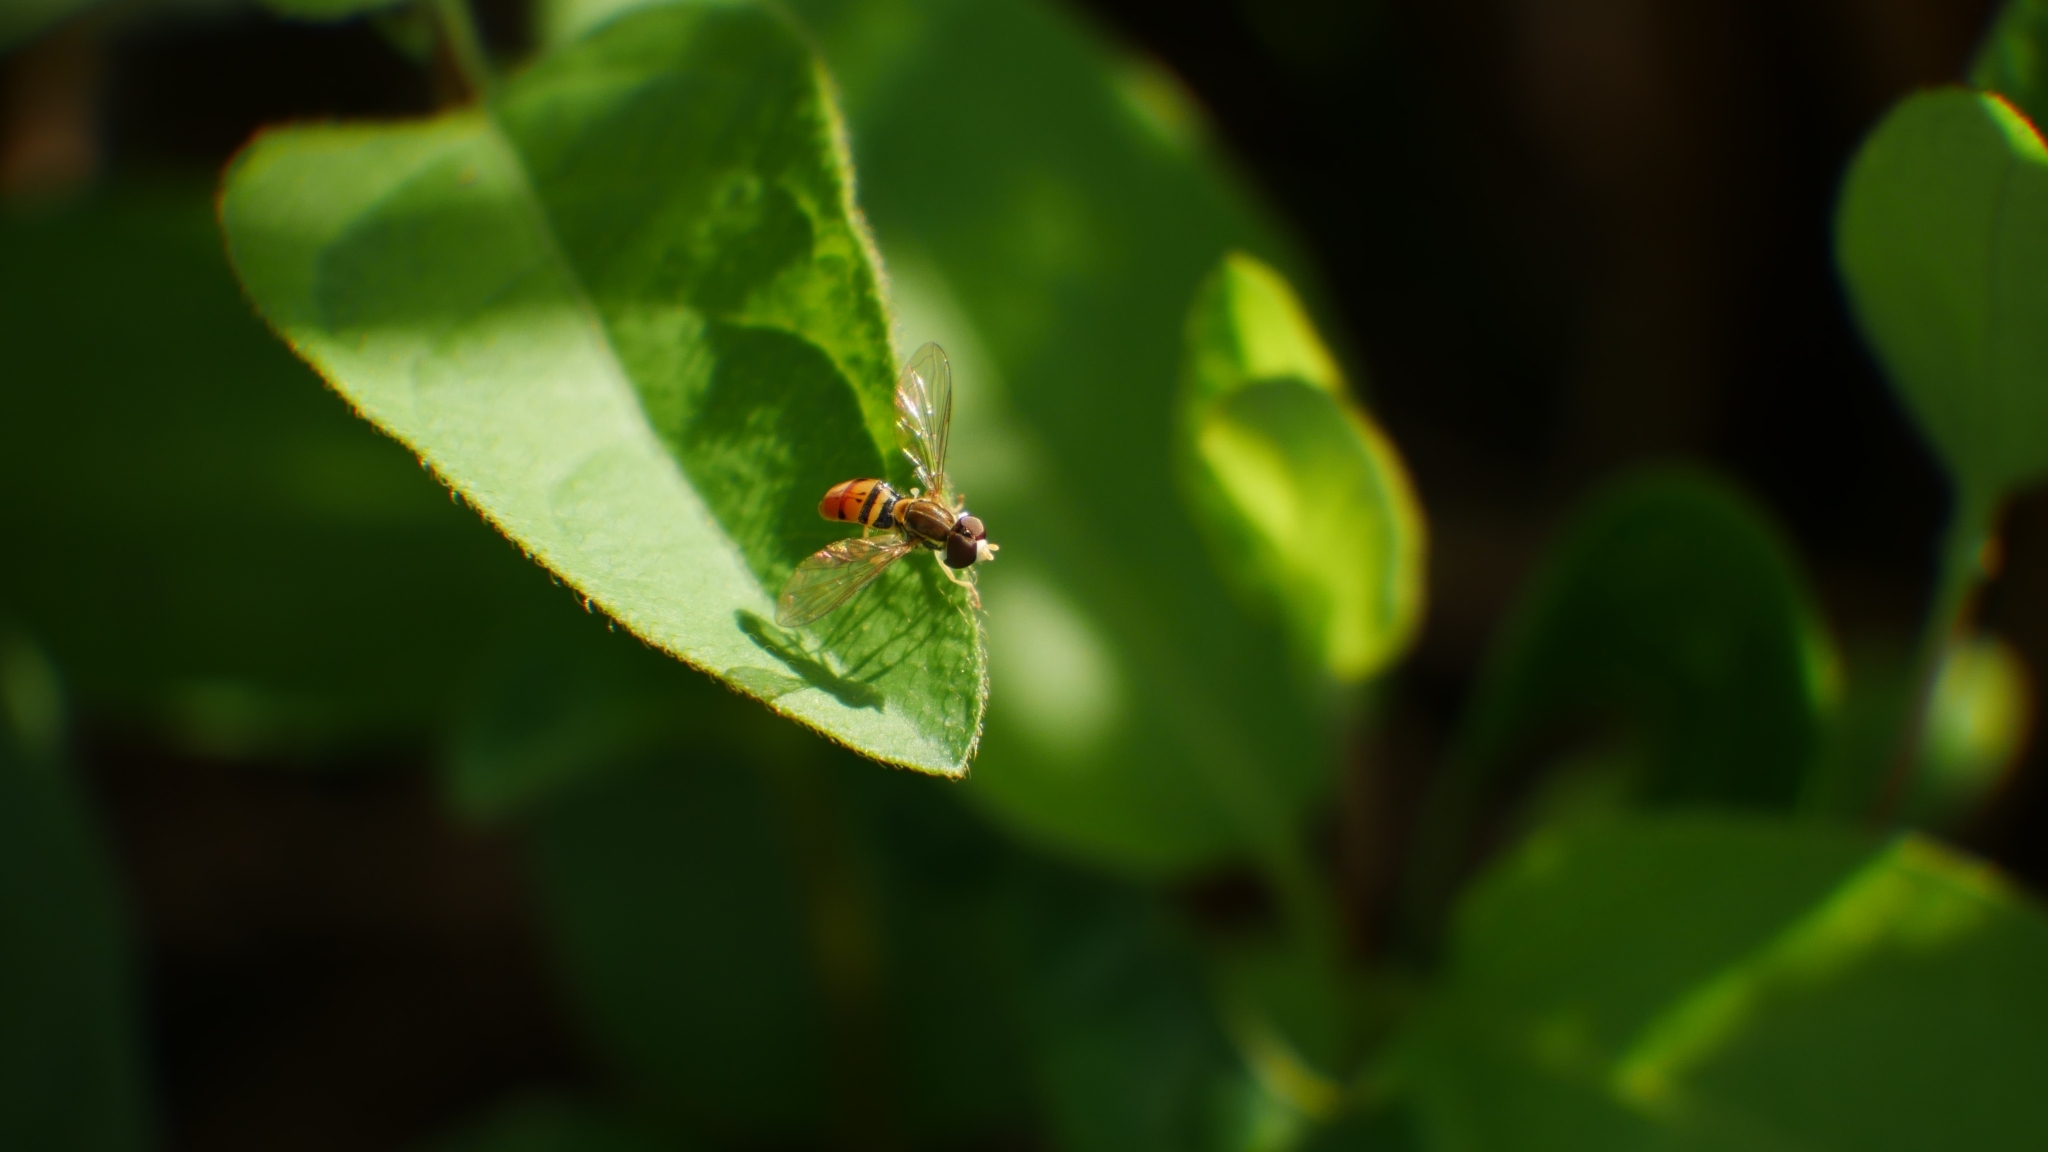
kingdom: Animalia
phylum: Arthropoda
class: Insecta
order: Diptera
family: Syrphidae
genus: Toxomerus
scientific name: Toxomerus marginatus
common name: Syrphid fly
